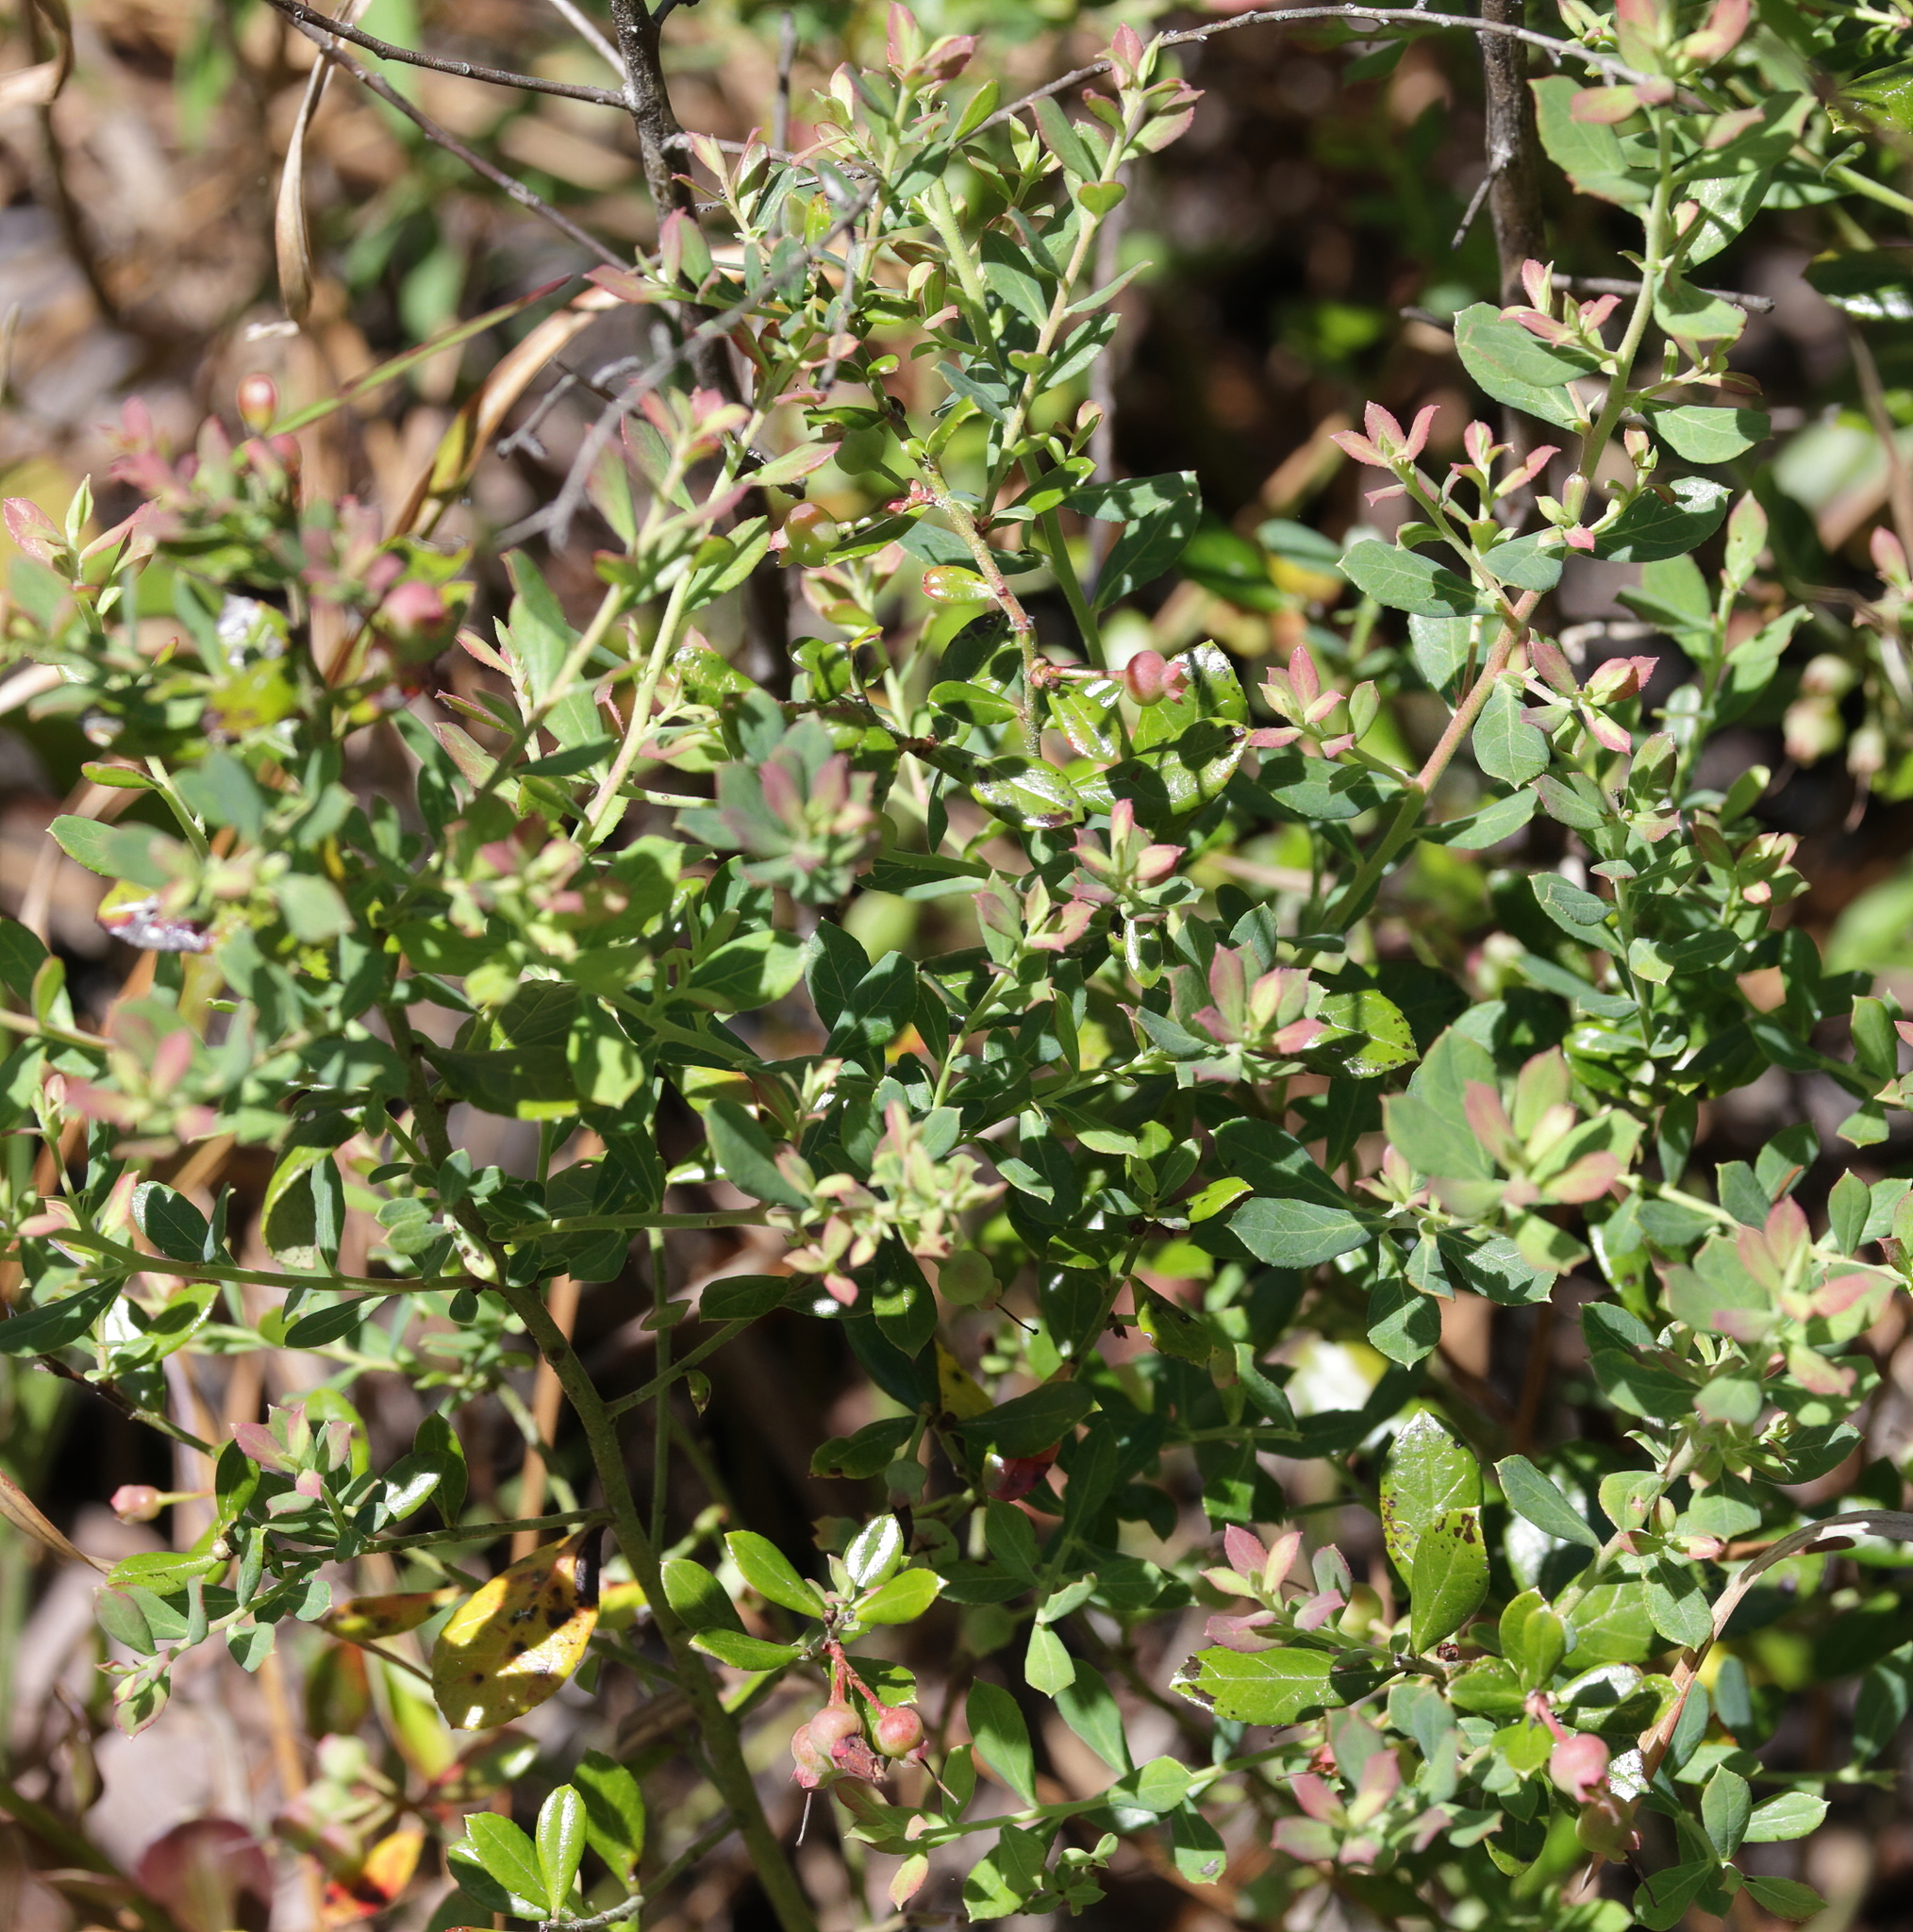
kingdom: Plantae
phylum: Tracheophyta
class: Magnoliopsida
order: Ericales
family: Ericaceae
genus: Vaccinium
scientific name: Vaccinium darrowii
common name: Darrow's blueberry
